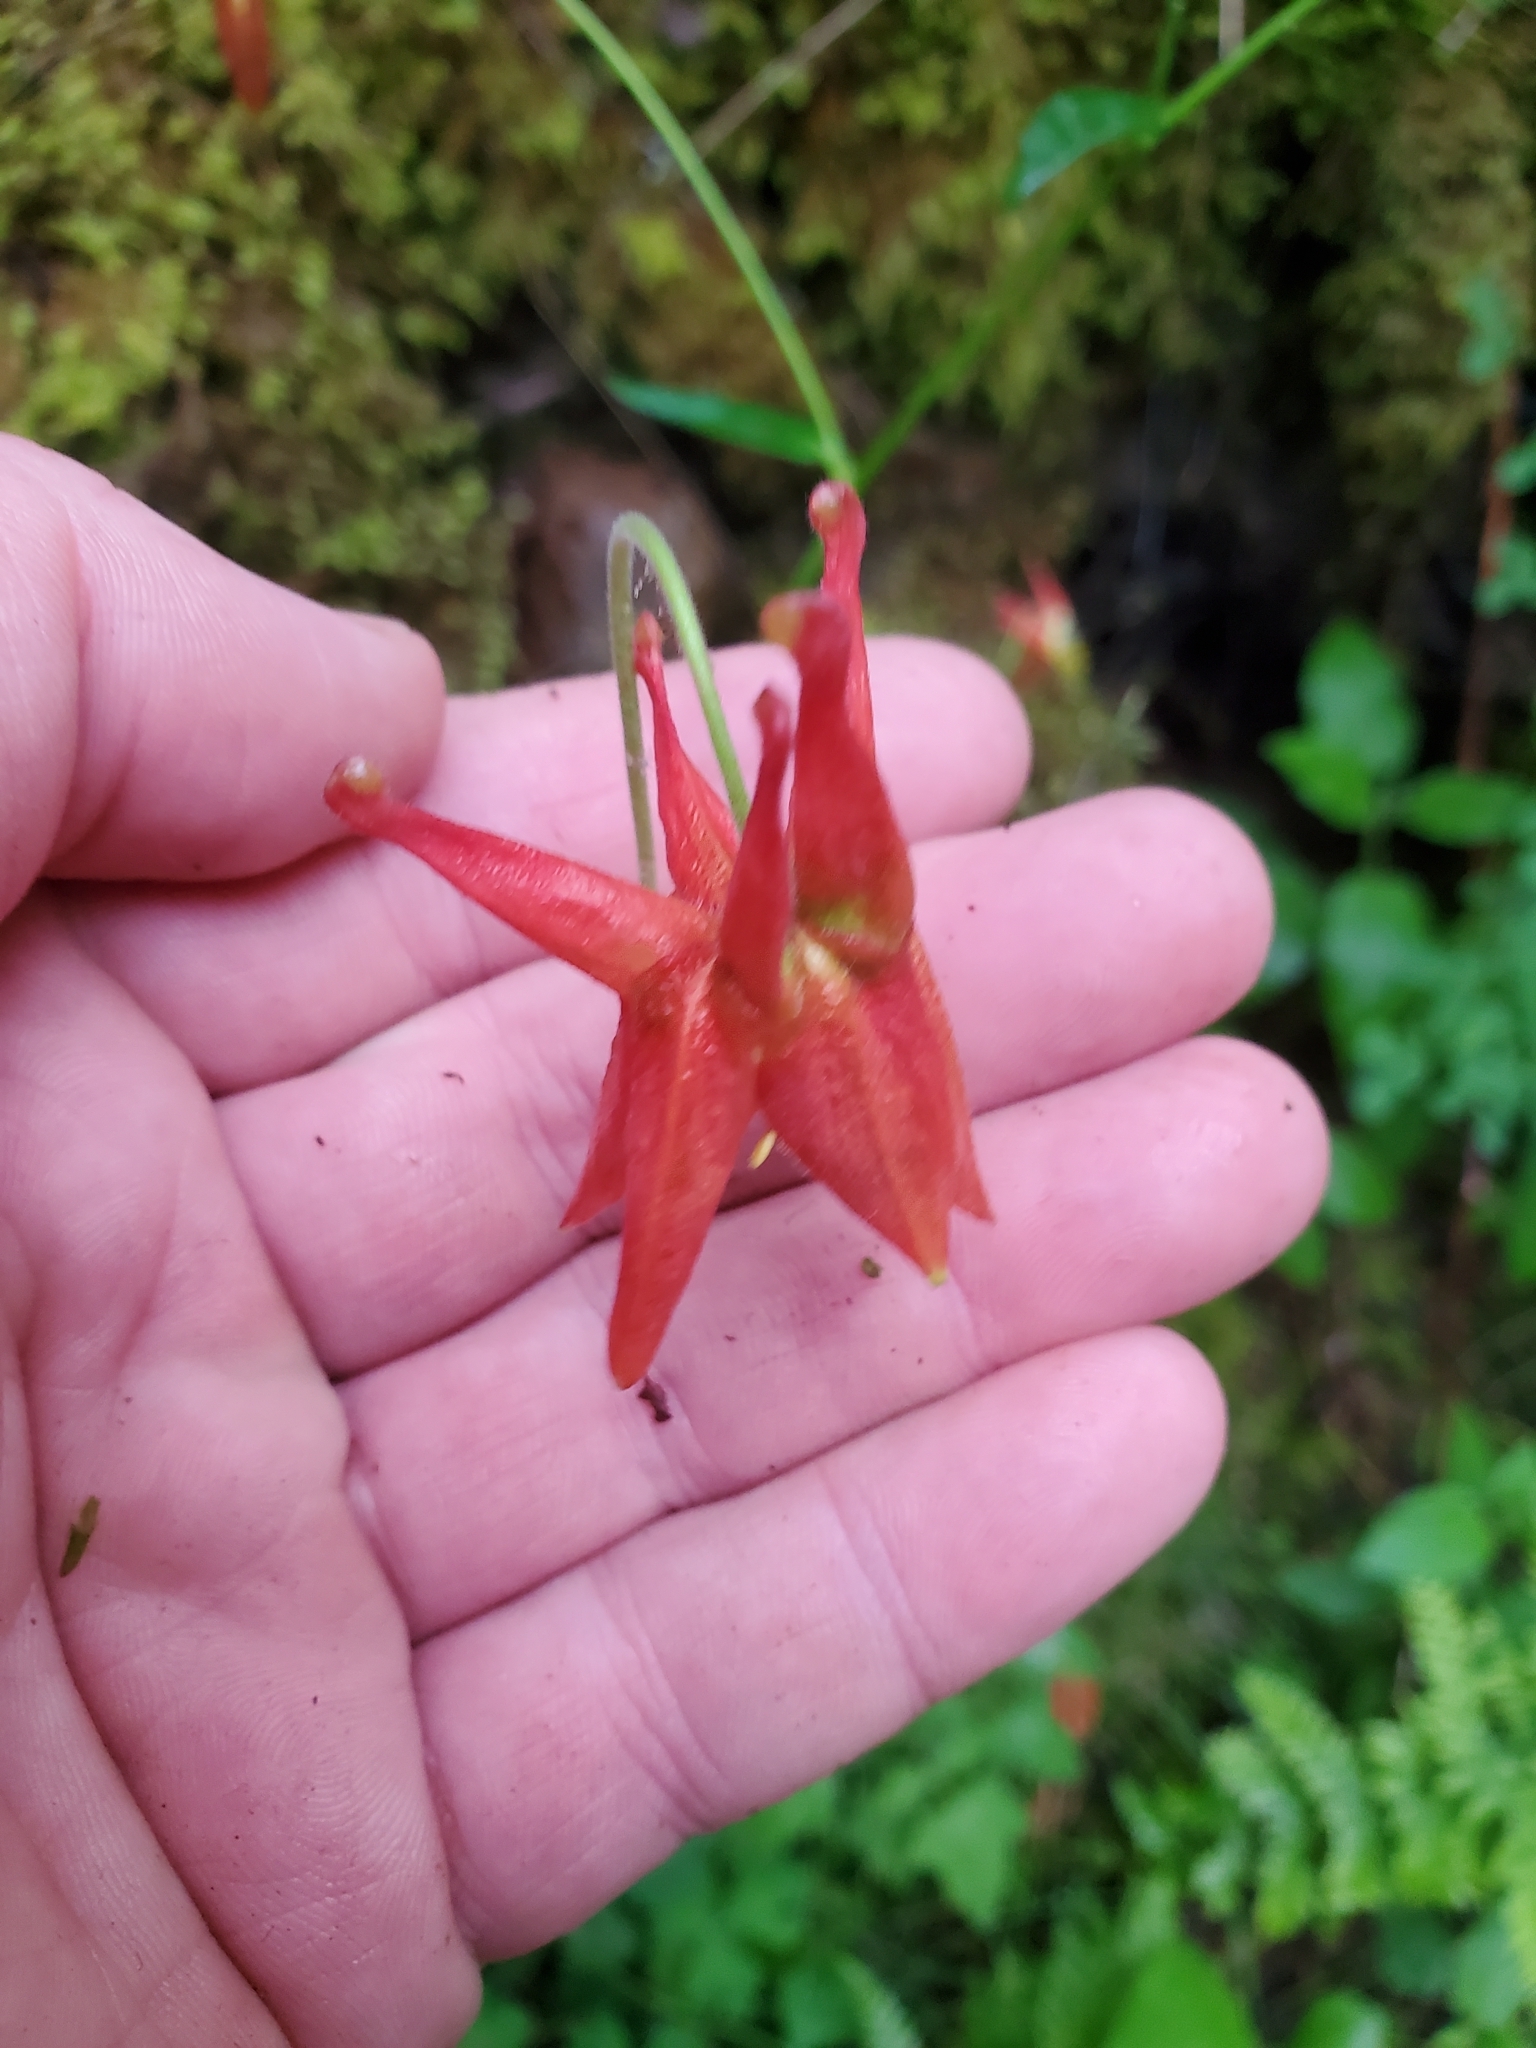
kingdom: Plantae
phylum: Tracheophyta
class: Magnoliopsida
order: Ranunculales
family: Ranunculaceae
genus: Aquilegia
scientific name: Aquilegia formosa
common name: Sitka columbine
